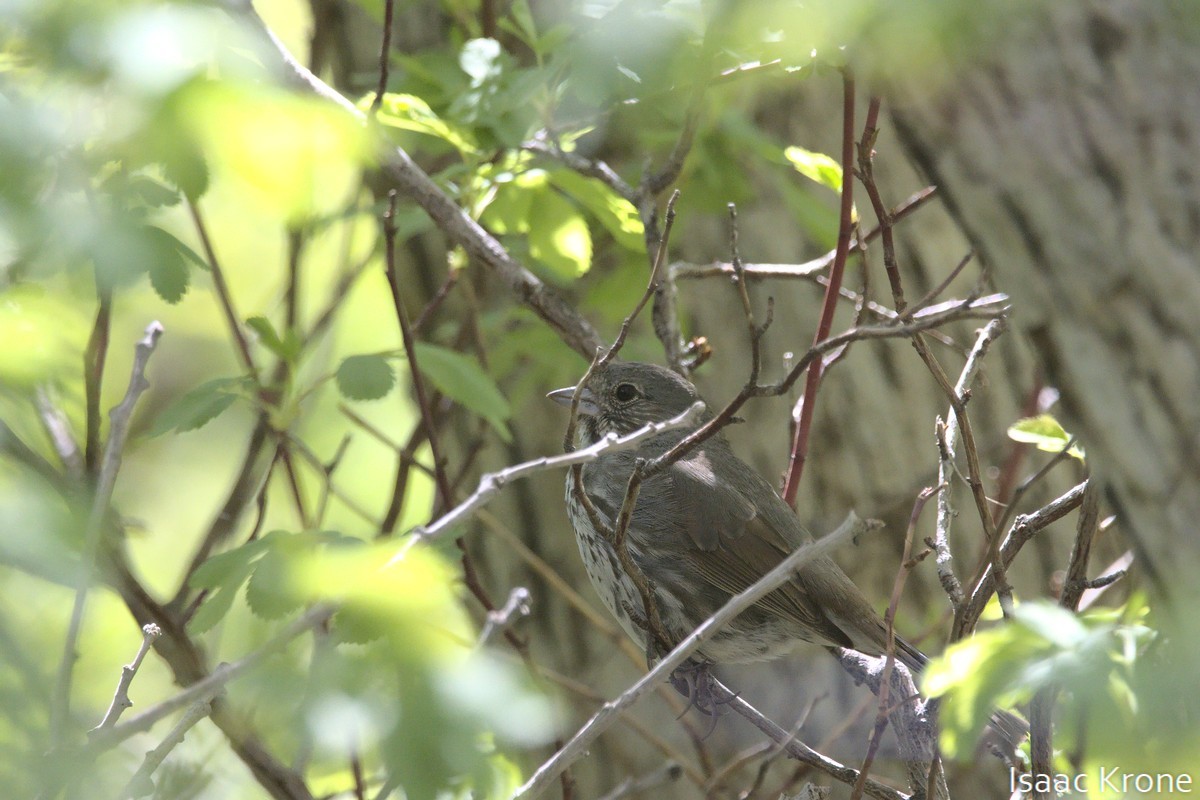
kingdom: Animalia
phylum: Chordata
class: Aves
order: Passeriformes
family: Passerellidae
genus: Passerella
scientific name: Passerella iliaca
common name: Fox sparrow
